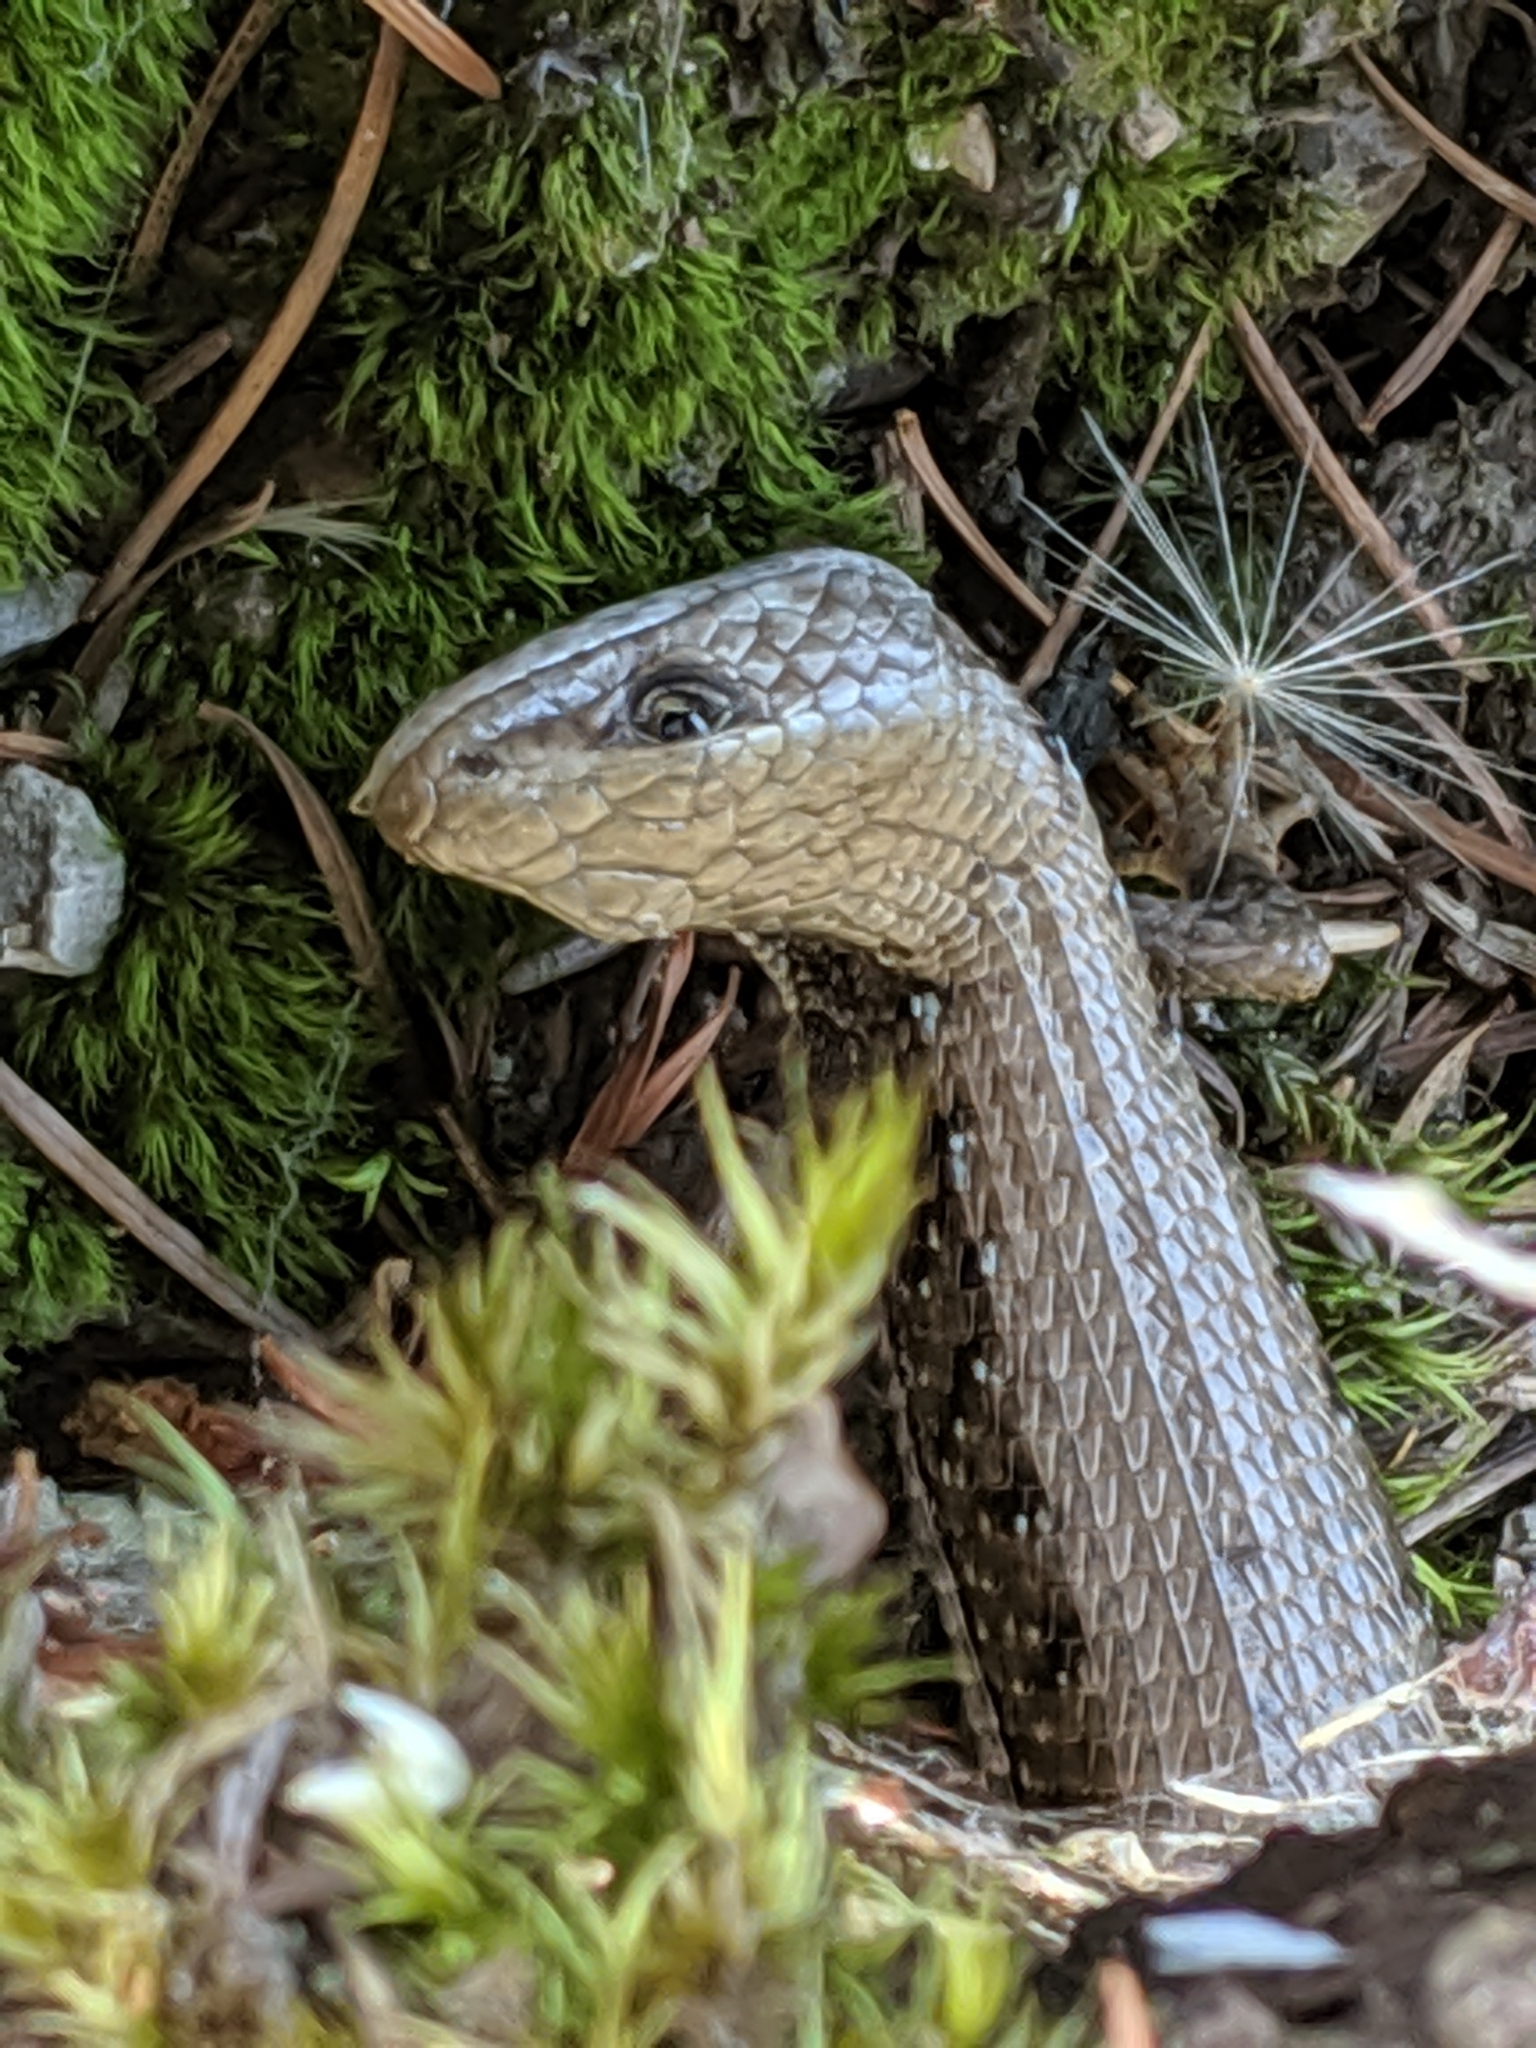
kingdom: Animalia
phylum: Chordata
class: Squamata
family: Anguidae
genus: Elgaria
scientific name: Elgaria coerulea
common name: Northern alligator lizard
